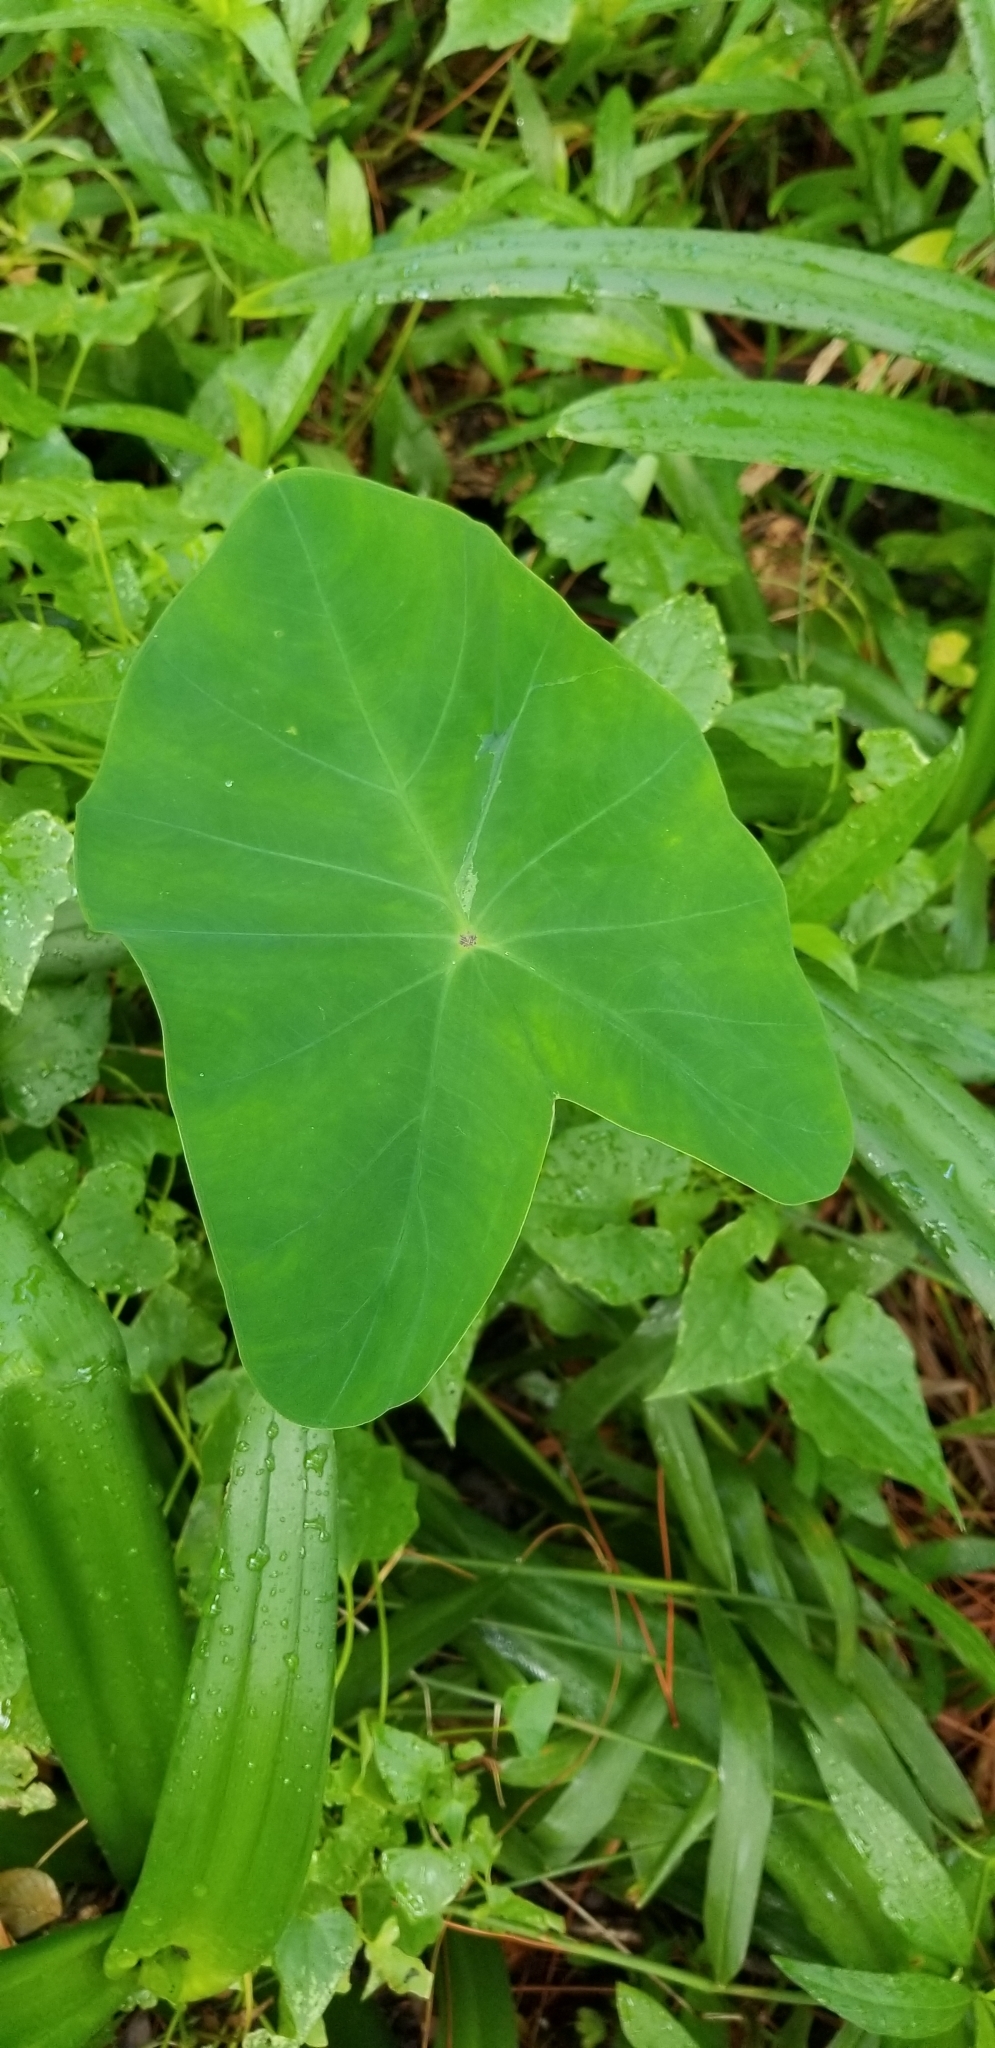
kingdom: Plantae
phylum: Tracheophyta
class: Liliopsida
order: Alismatales
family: Araceae
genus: Colocasia
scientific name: Colocasia esculenta
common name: Taro
